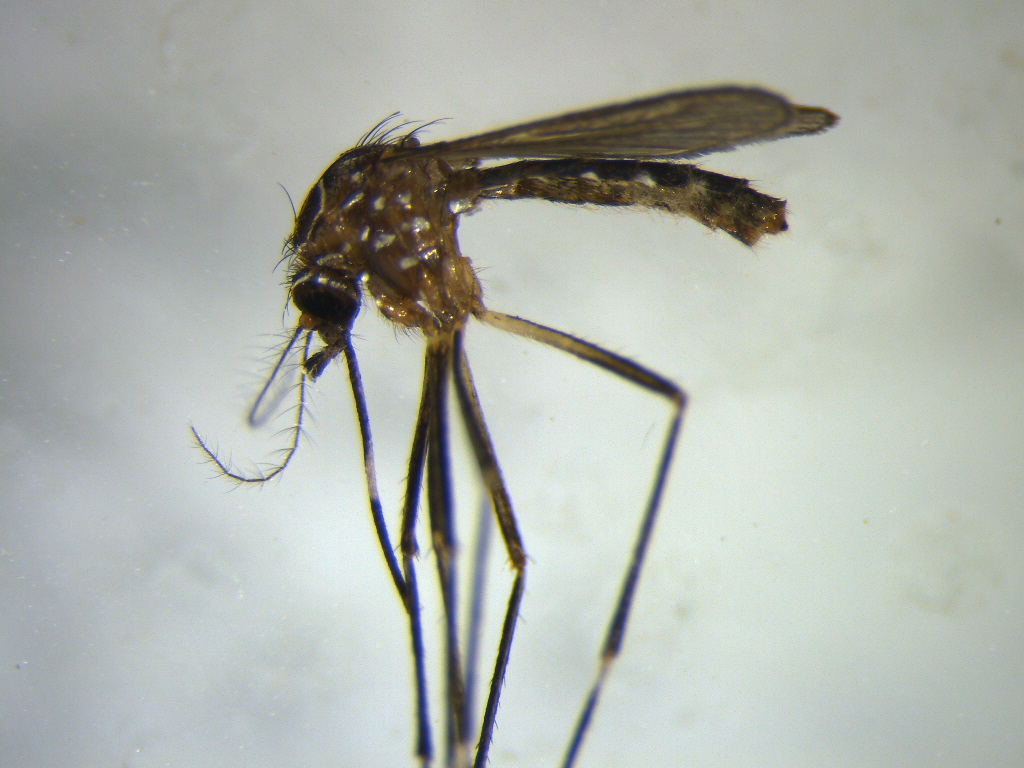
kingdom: Animalia
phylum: Arthropoda
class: Insecta
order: Diptera
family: Culicidae
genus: Aedes
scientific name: Aedes notoscriptus
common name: Australian backyard mosquito
